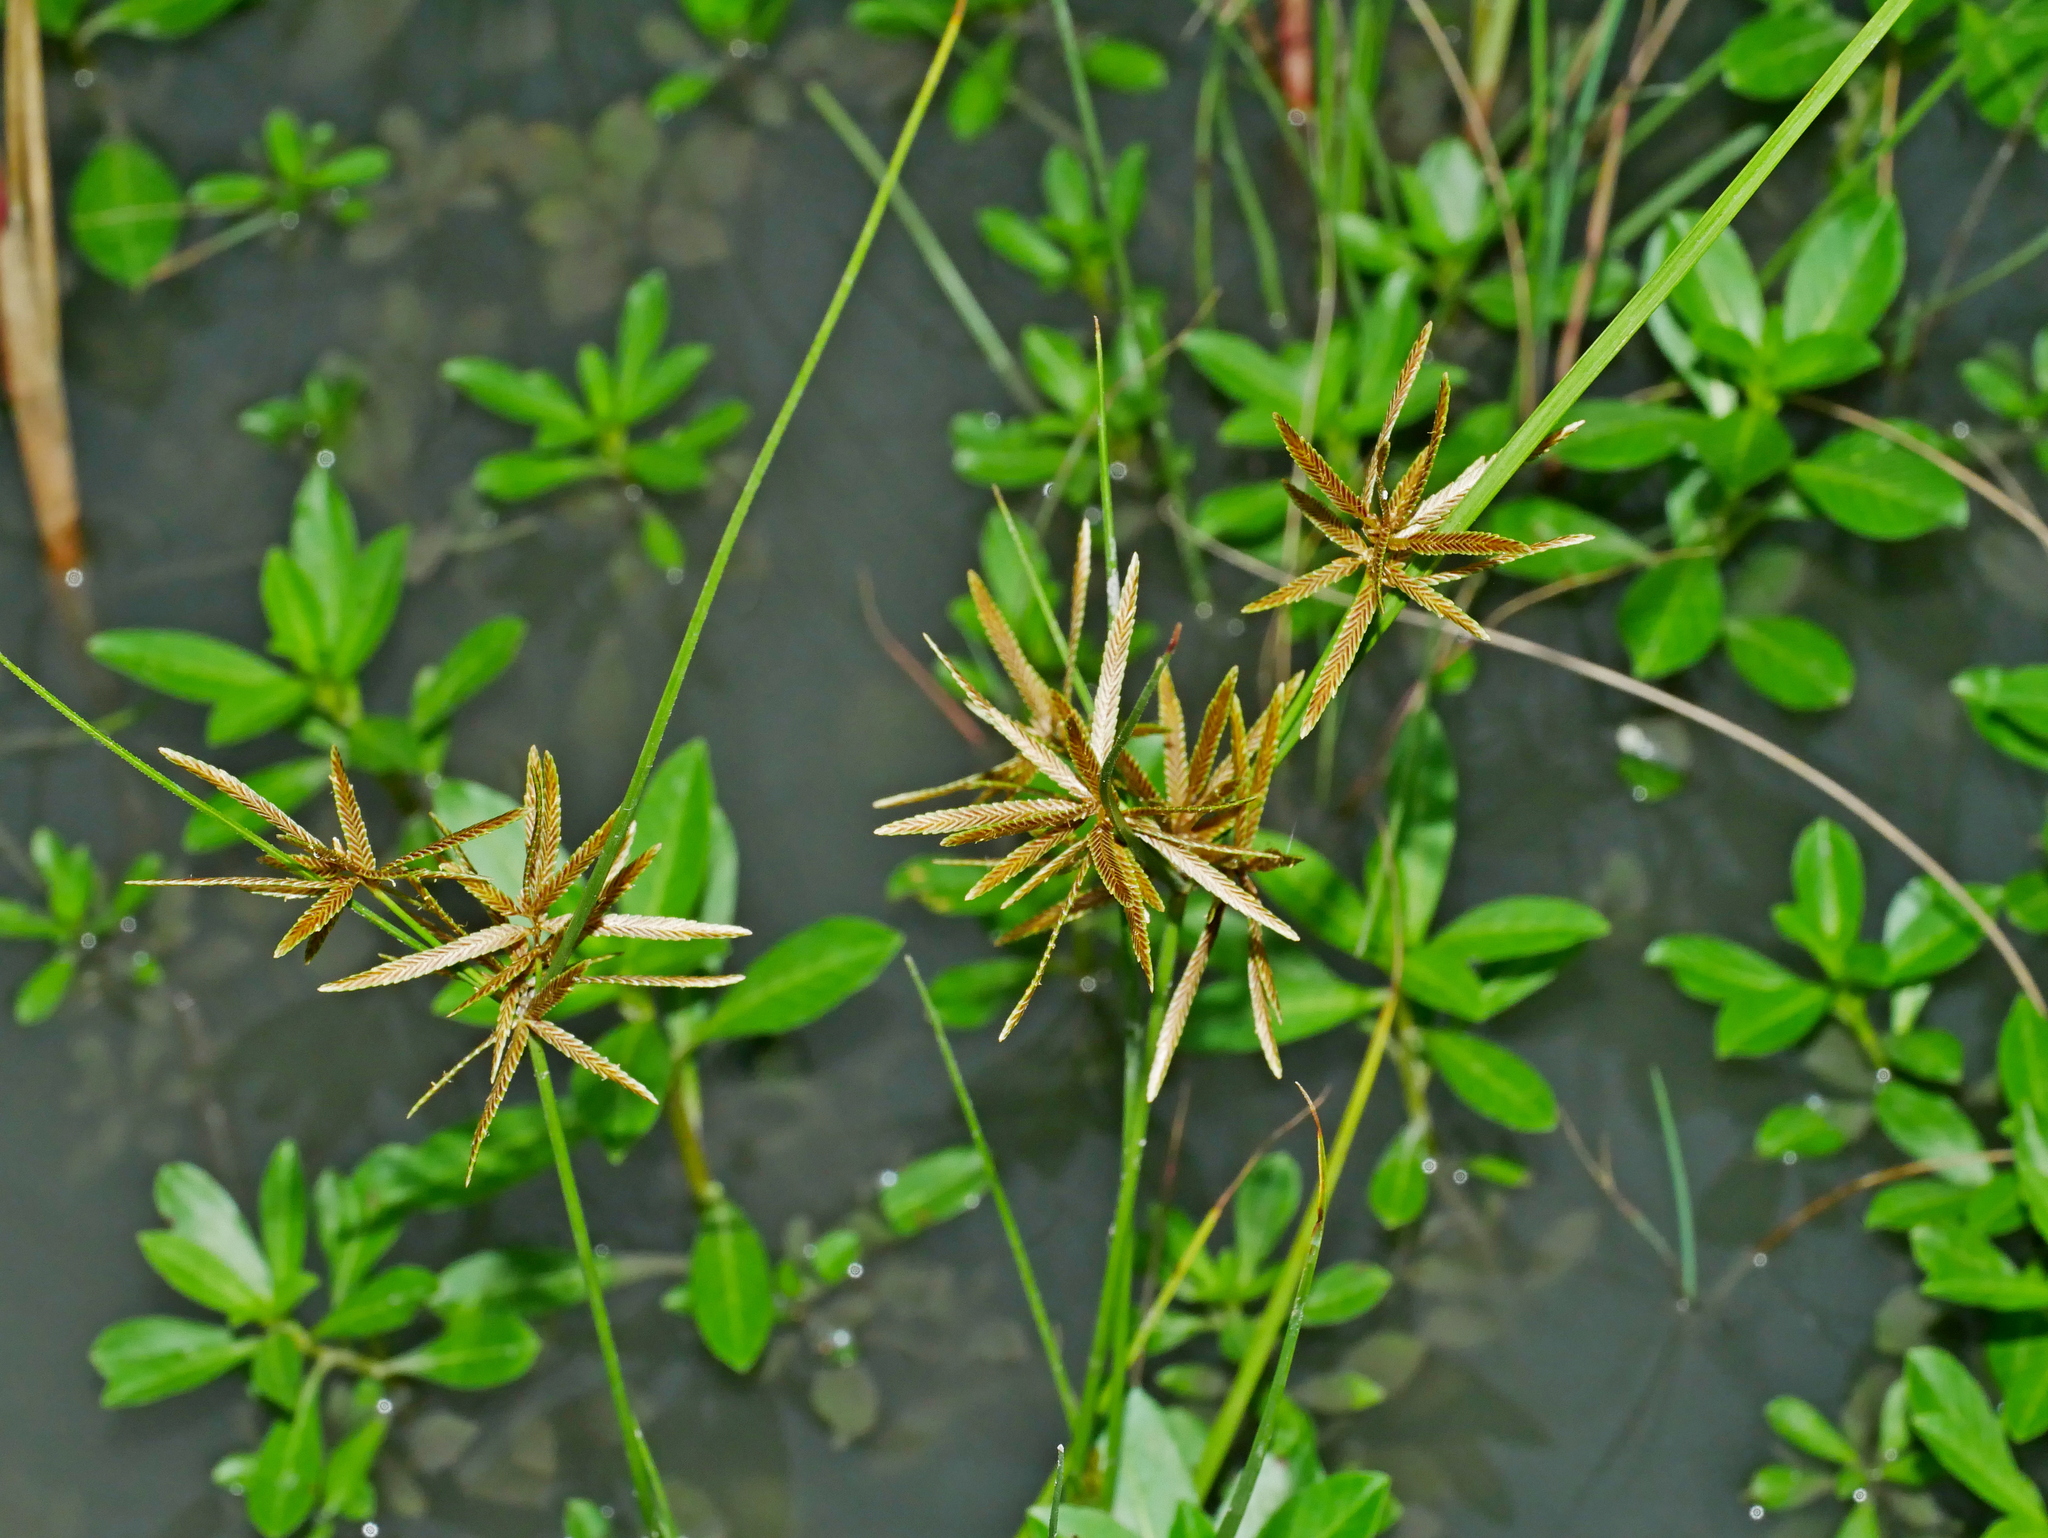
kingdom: Plantae
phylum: Tracheophyta
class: Liliopsida
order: Poales
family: Cyperaceae
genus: Cyperus
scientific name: Cyperus flavidus
